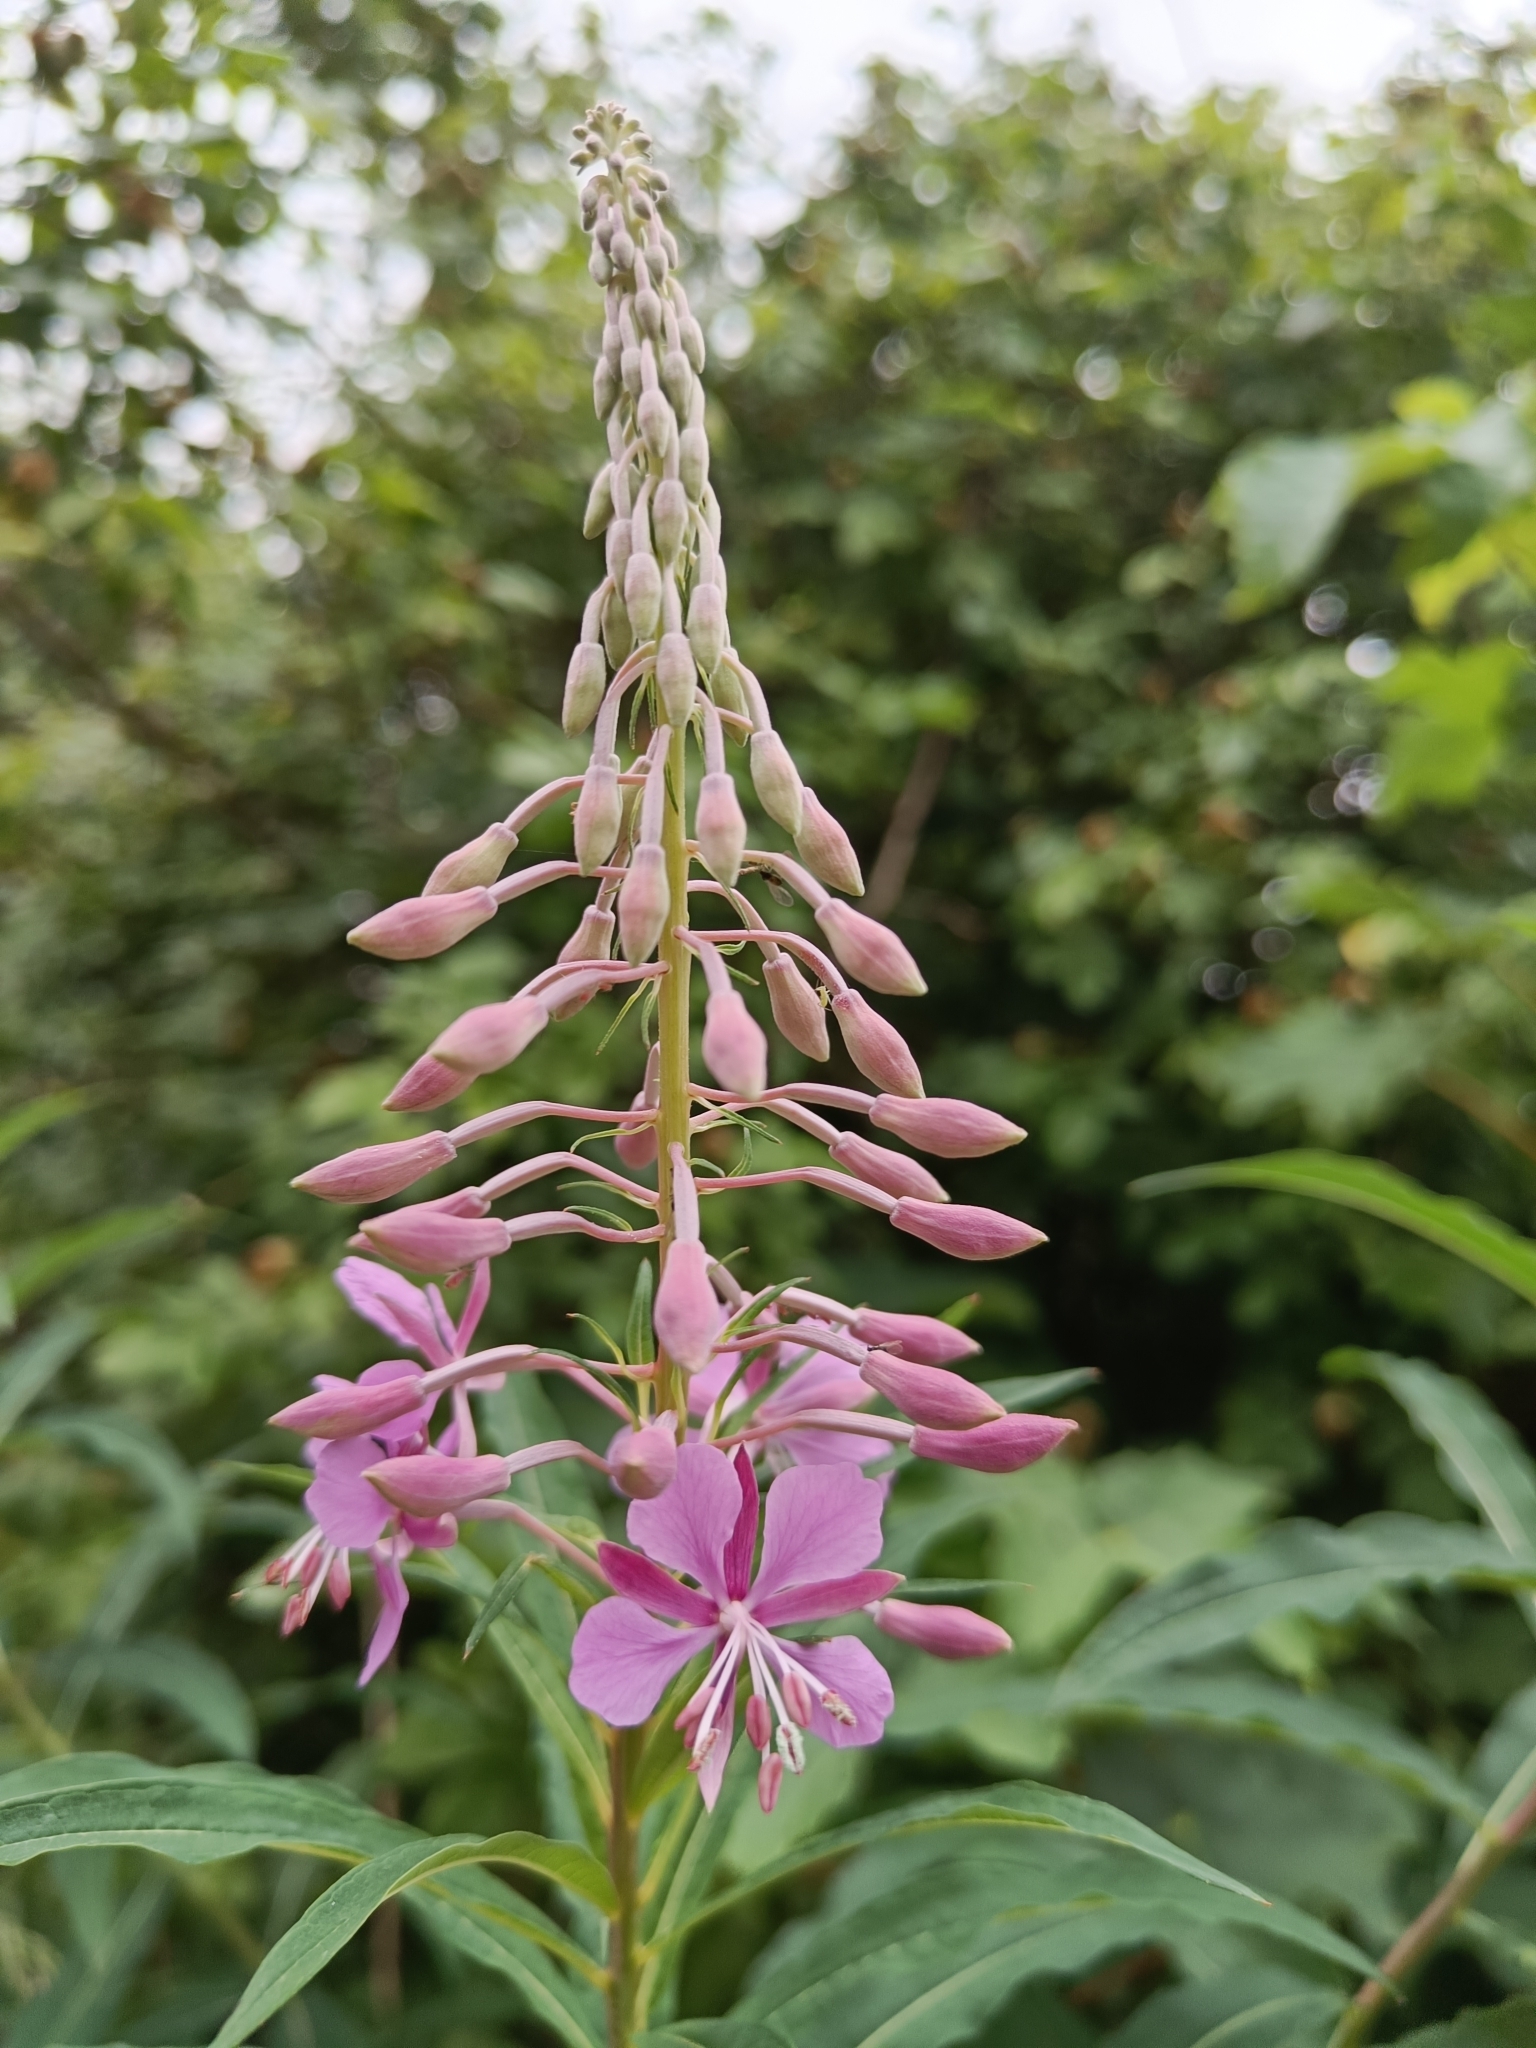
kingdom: Plantae
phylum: Tracheophyta
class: Magnoliopsida
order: Myrtales
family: Onagraceae
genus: Chamaenerion
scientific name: Chamaenerion angustifolium
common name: Fireweed
